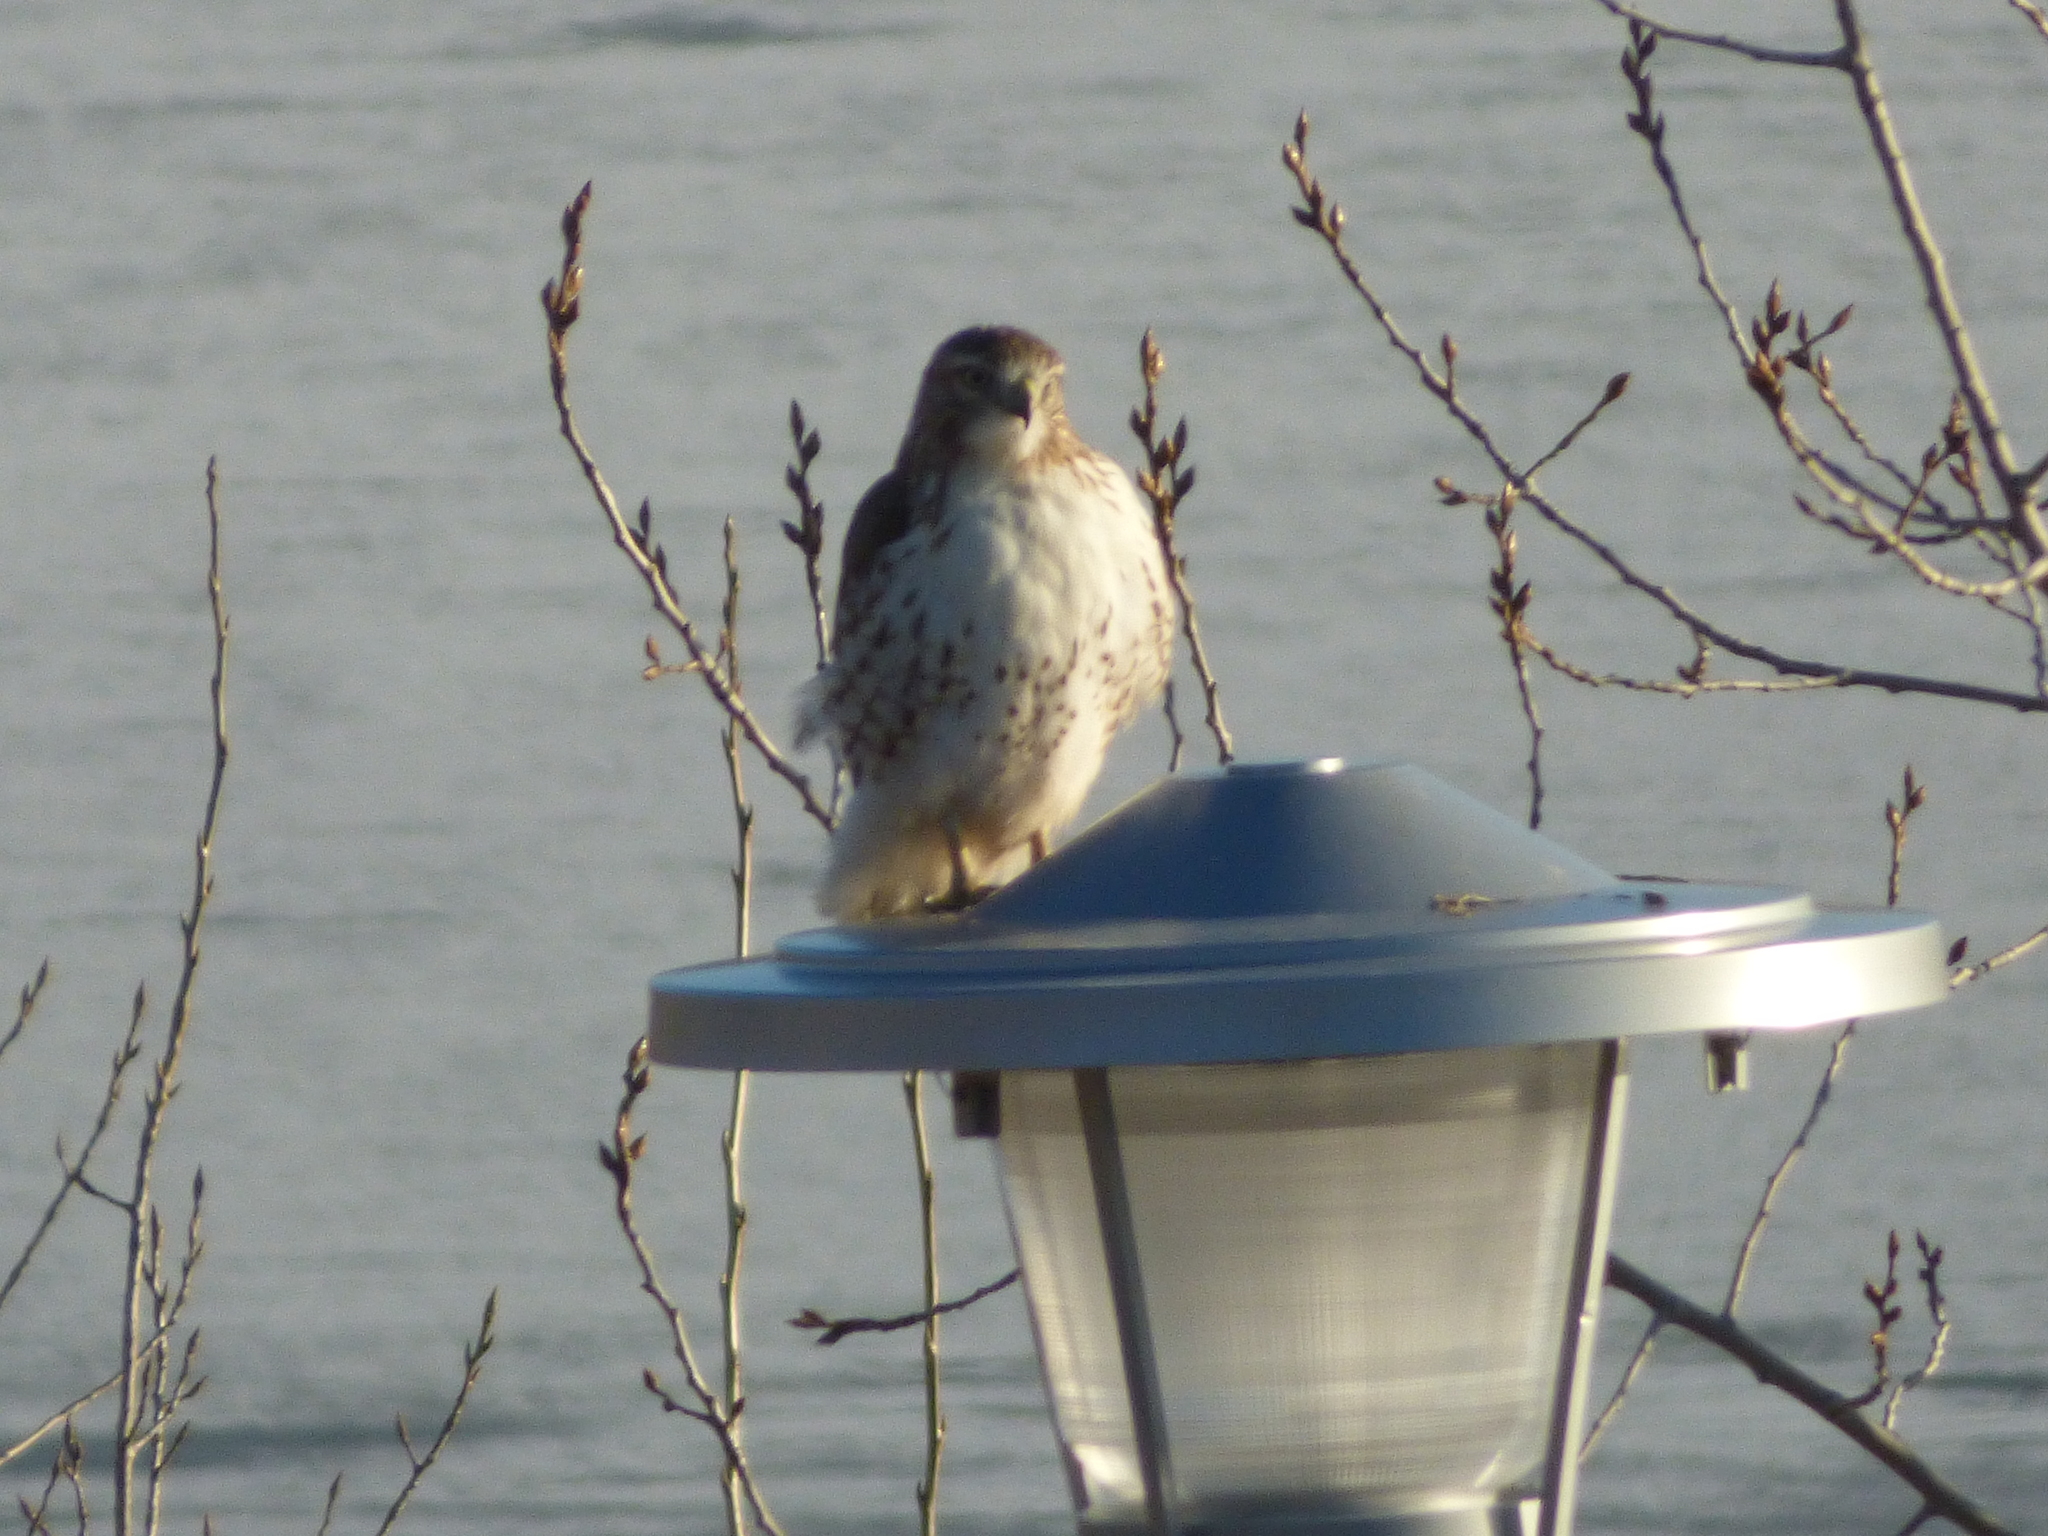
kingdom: Animalia
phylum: Chordata
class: Aves
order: Accipitriformes
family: Accipitridae
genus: Buteo
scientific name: Buteo jamaicensis
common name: Red-tailed hawk
